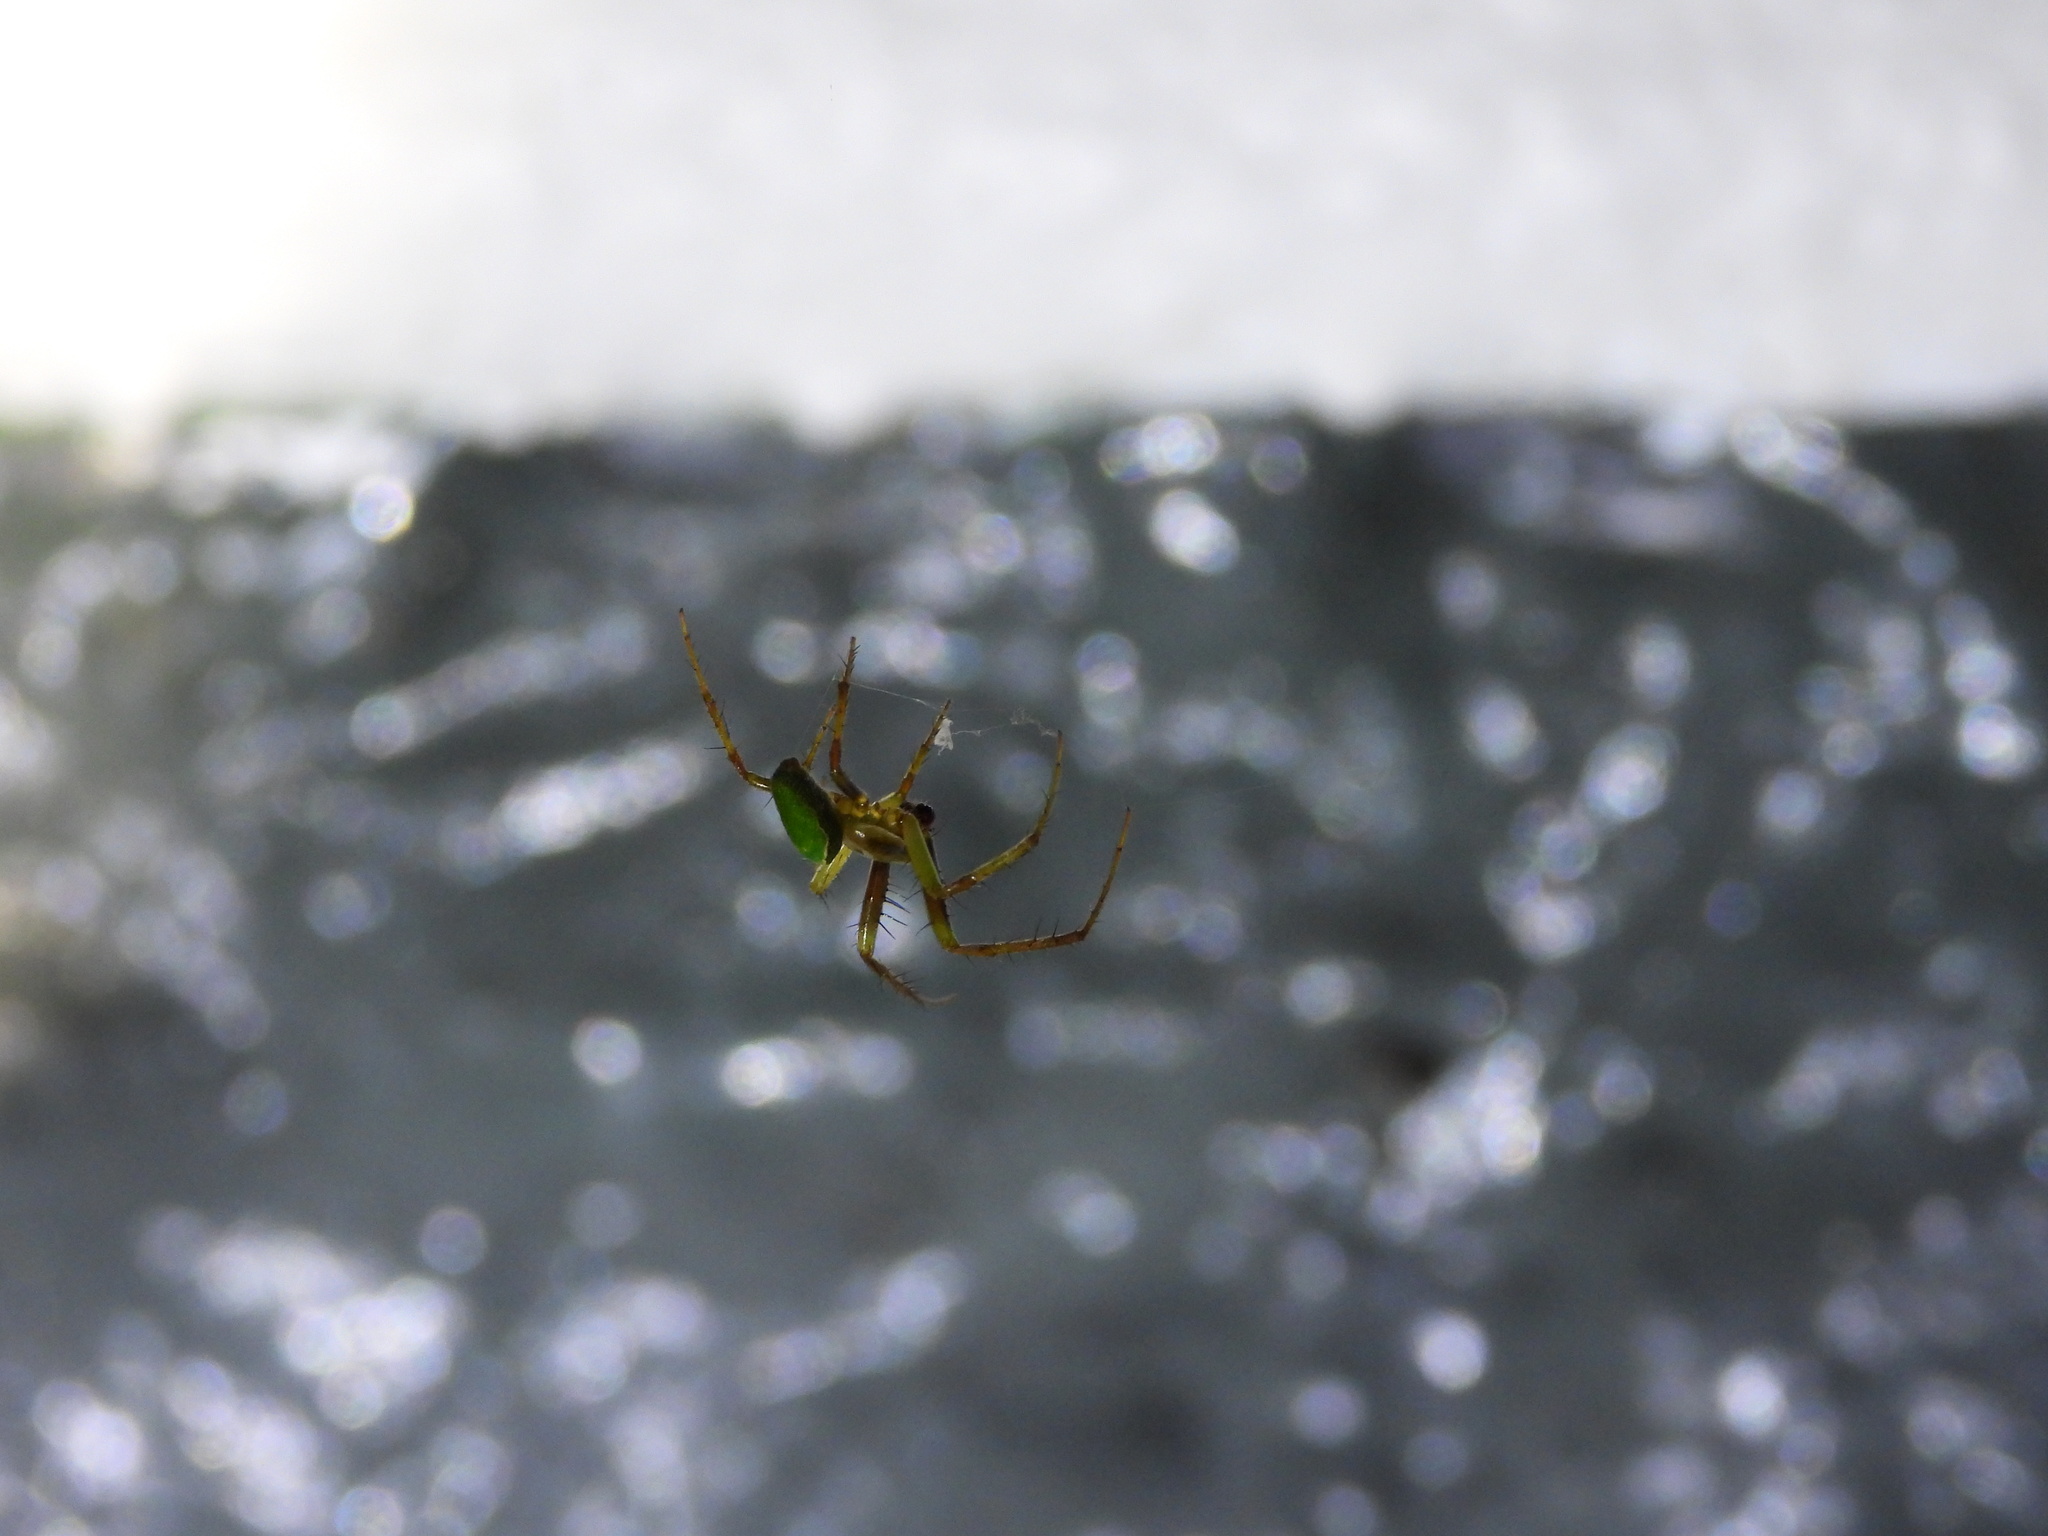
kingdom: Animalia
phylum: Arthropoda
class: Arachnida
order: Araneae
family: Araneidae
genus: Colaranea
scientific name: Colaranea viriditas
